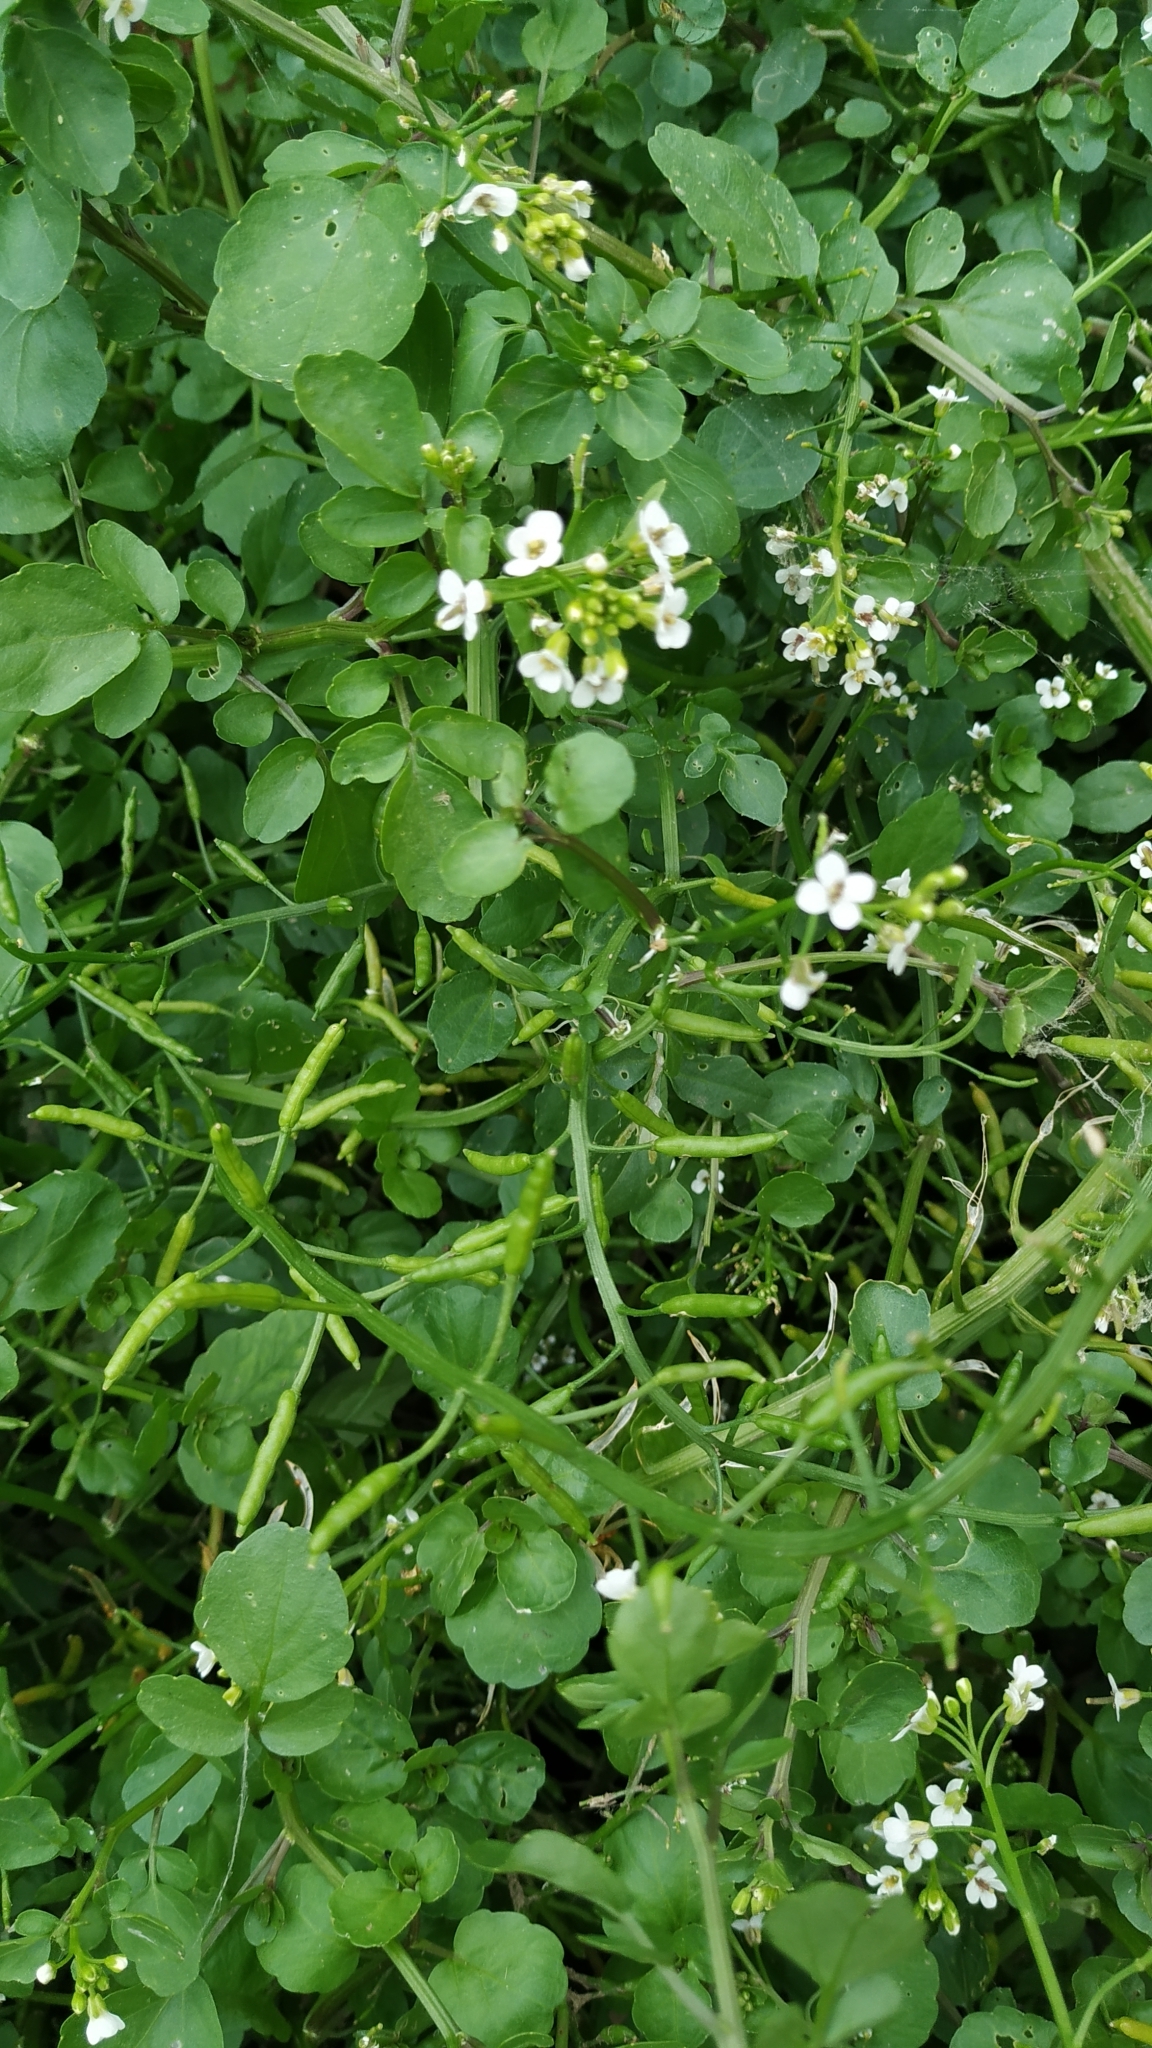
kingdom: Plantae
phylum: Tracheophyta
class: Magnoliopsida
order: Brassicales
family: Brassicaceae
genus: Nasturtium
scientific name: Nasturtium officinale
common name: Watercress
